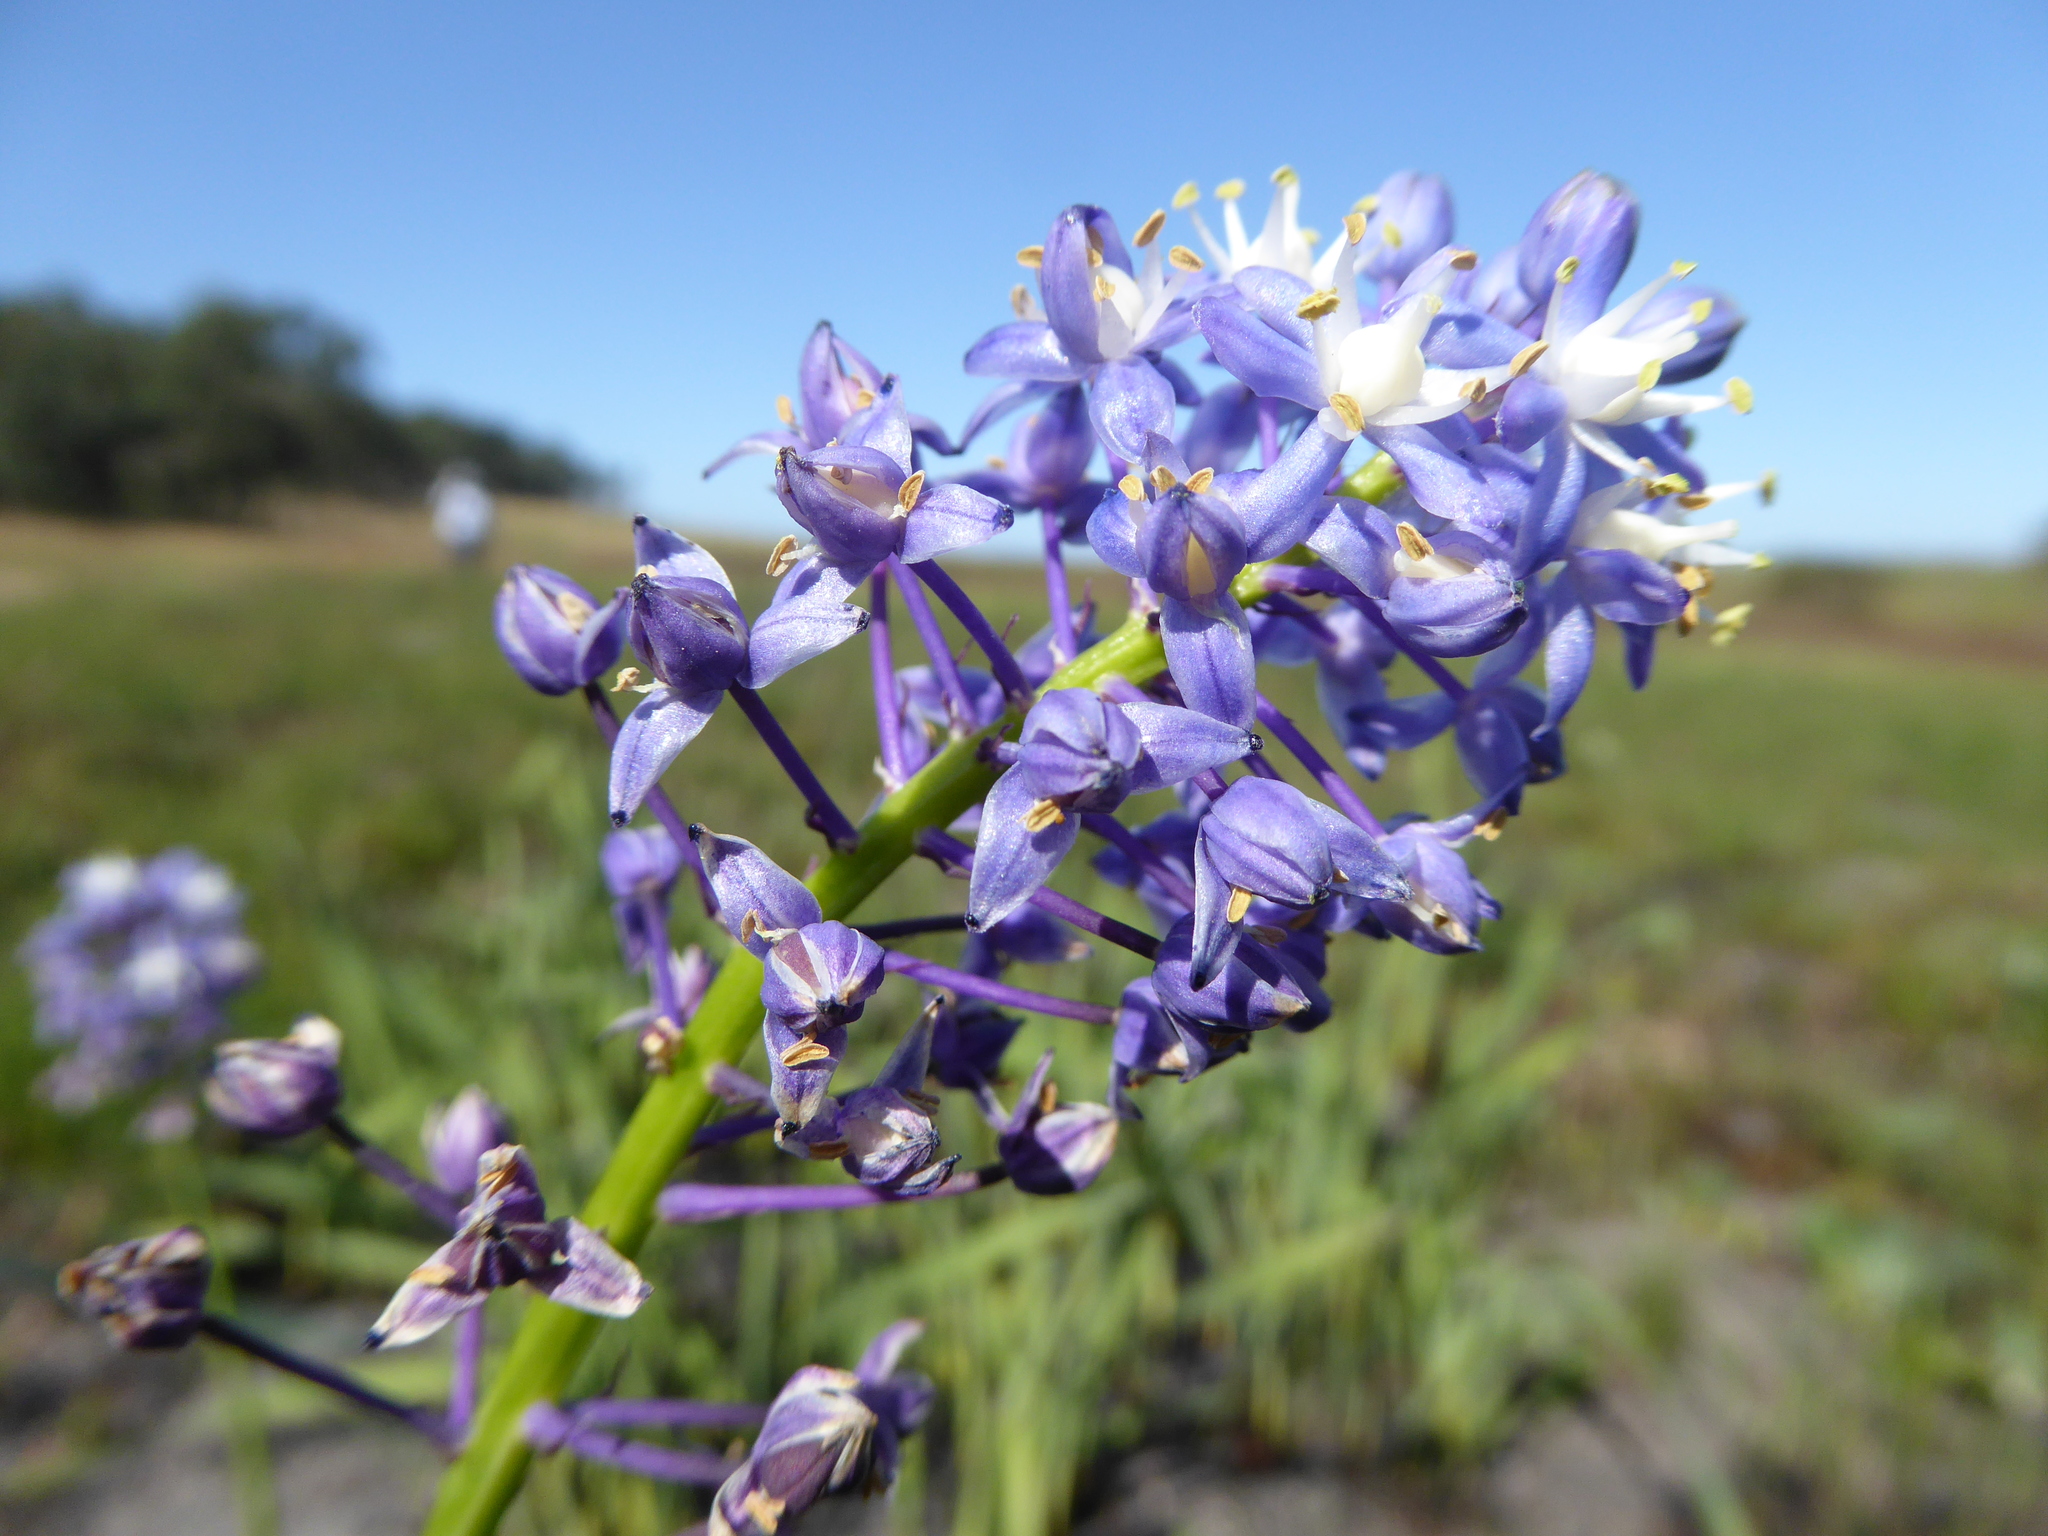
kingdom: Plantae
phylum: Tracheophyta
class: Liliopsida
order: Asparagales
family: Asparagaceae
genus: Merwilla
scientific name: Merwilla plumbea
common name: Blue-squill
